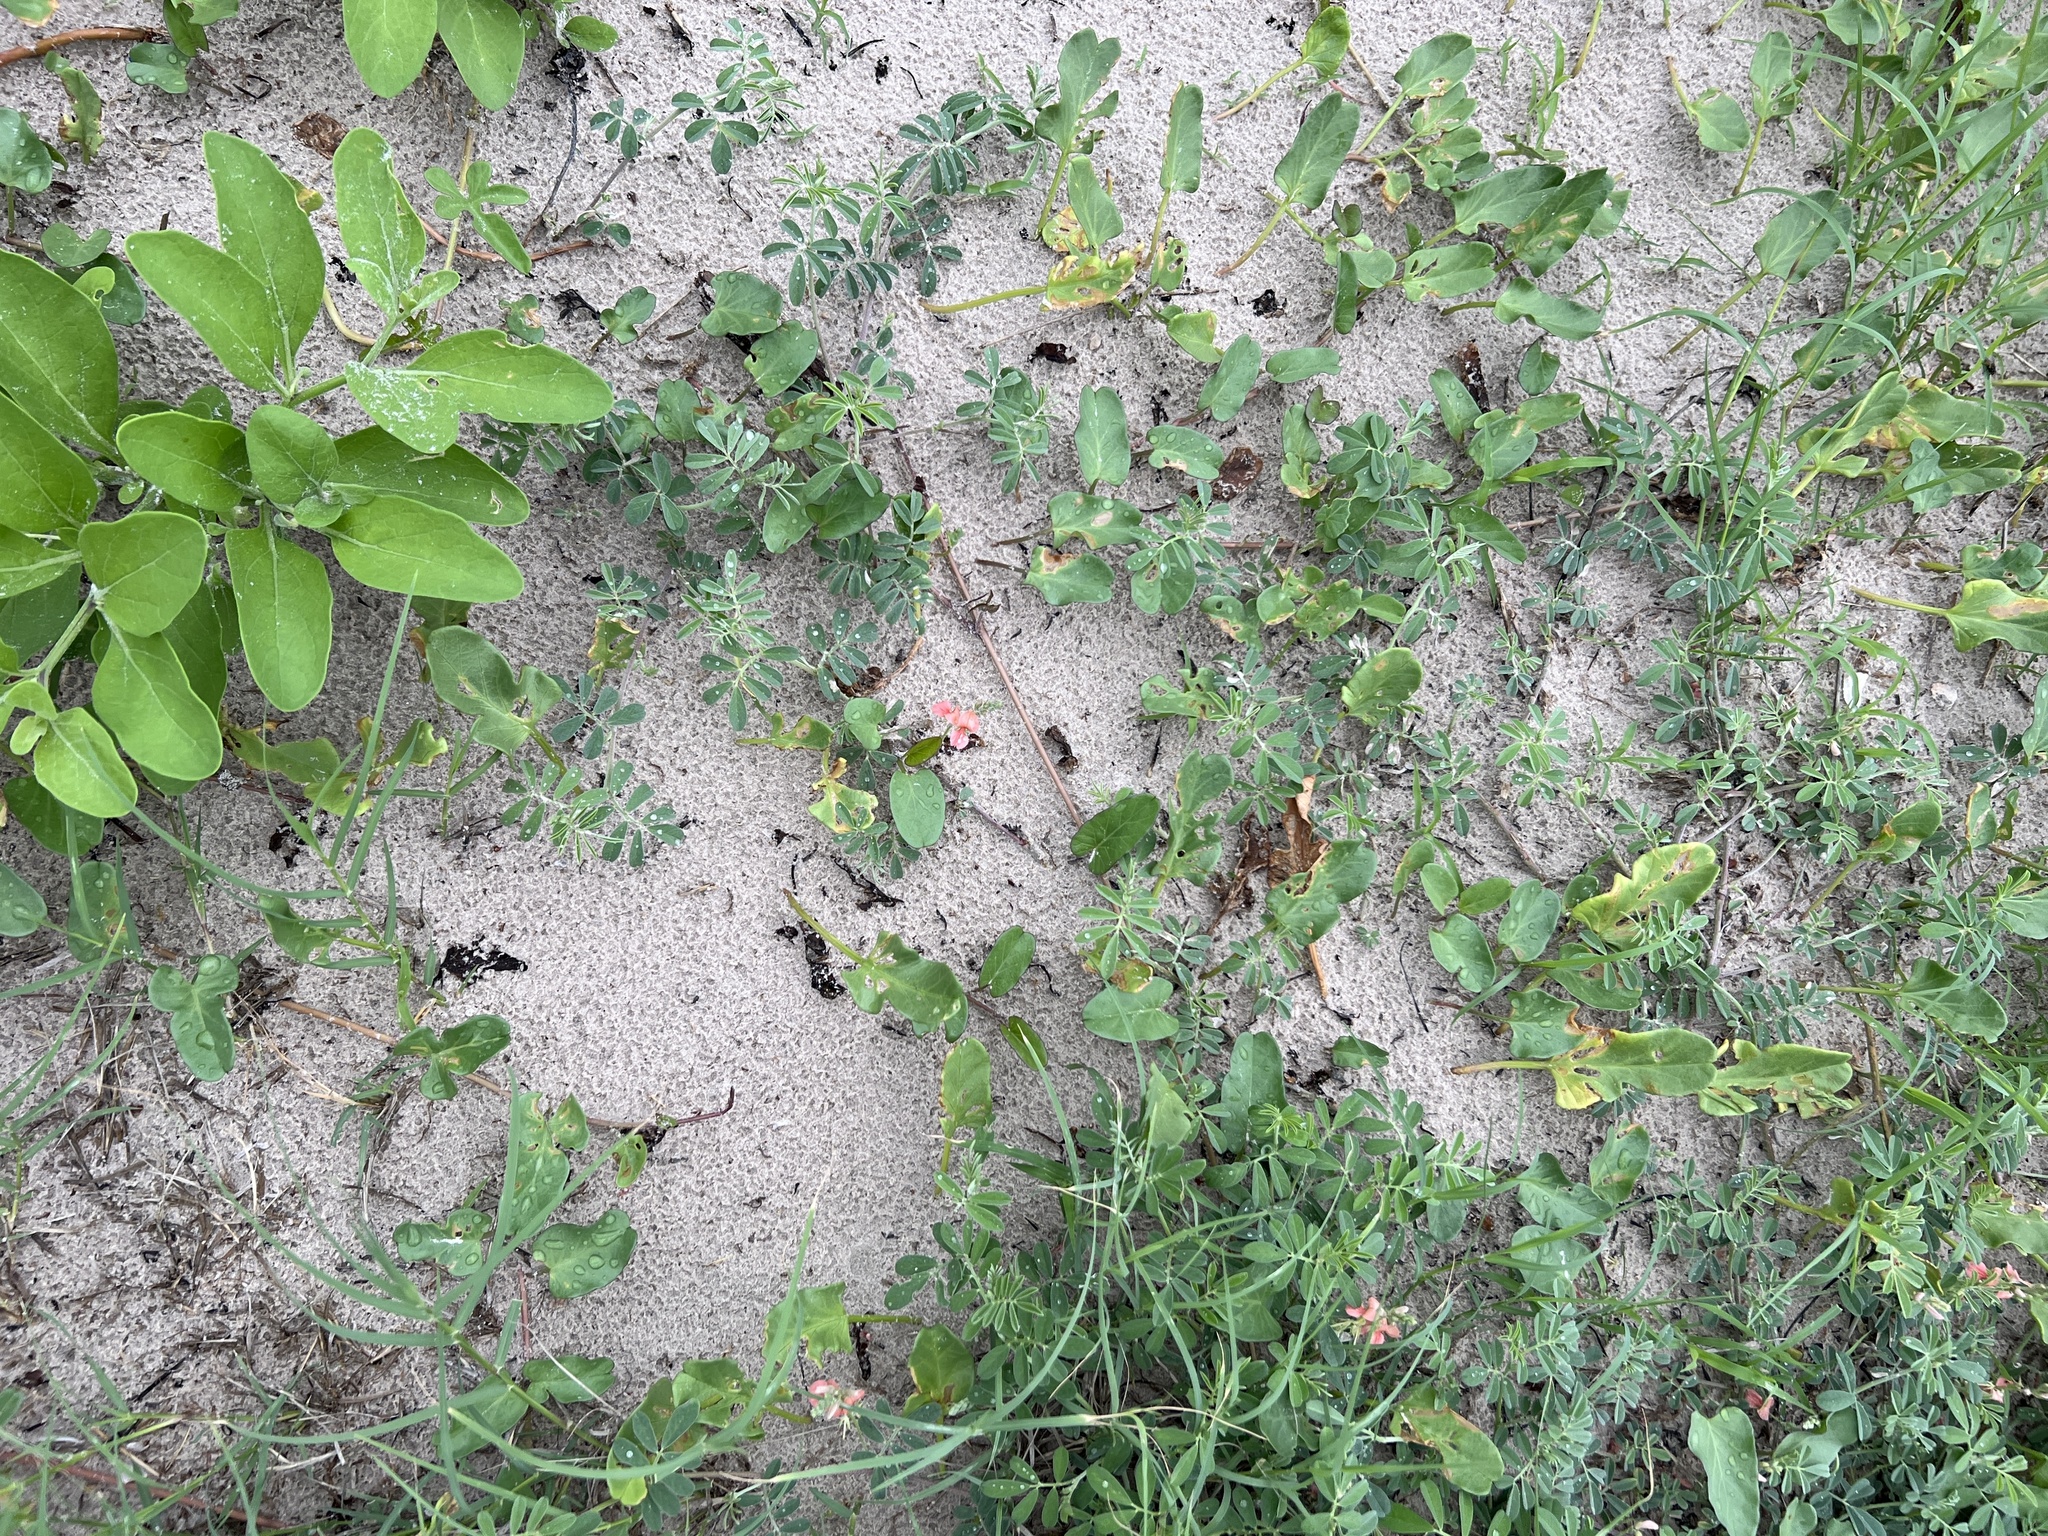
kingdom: Plantae
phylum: Tracheophyta
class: Magnoliopsida
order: Fabales
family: Fabaceae
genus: Indigofera
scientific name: Indigofera miniata
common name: Coast indigo
